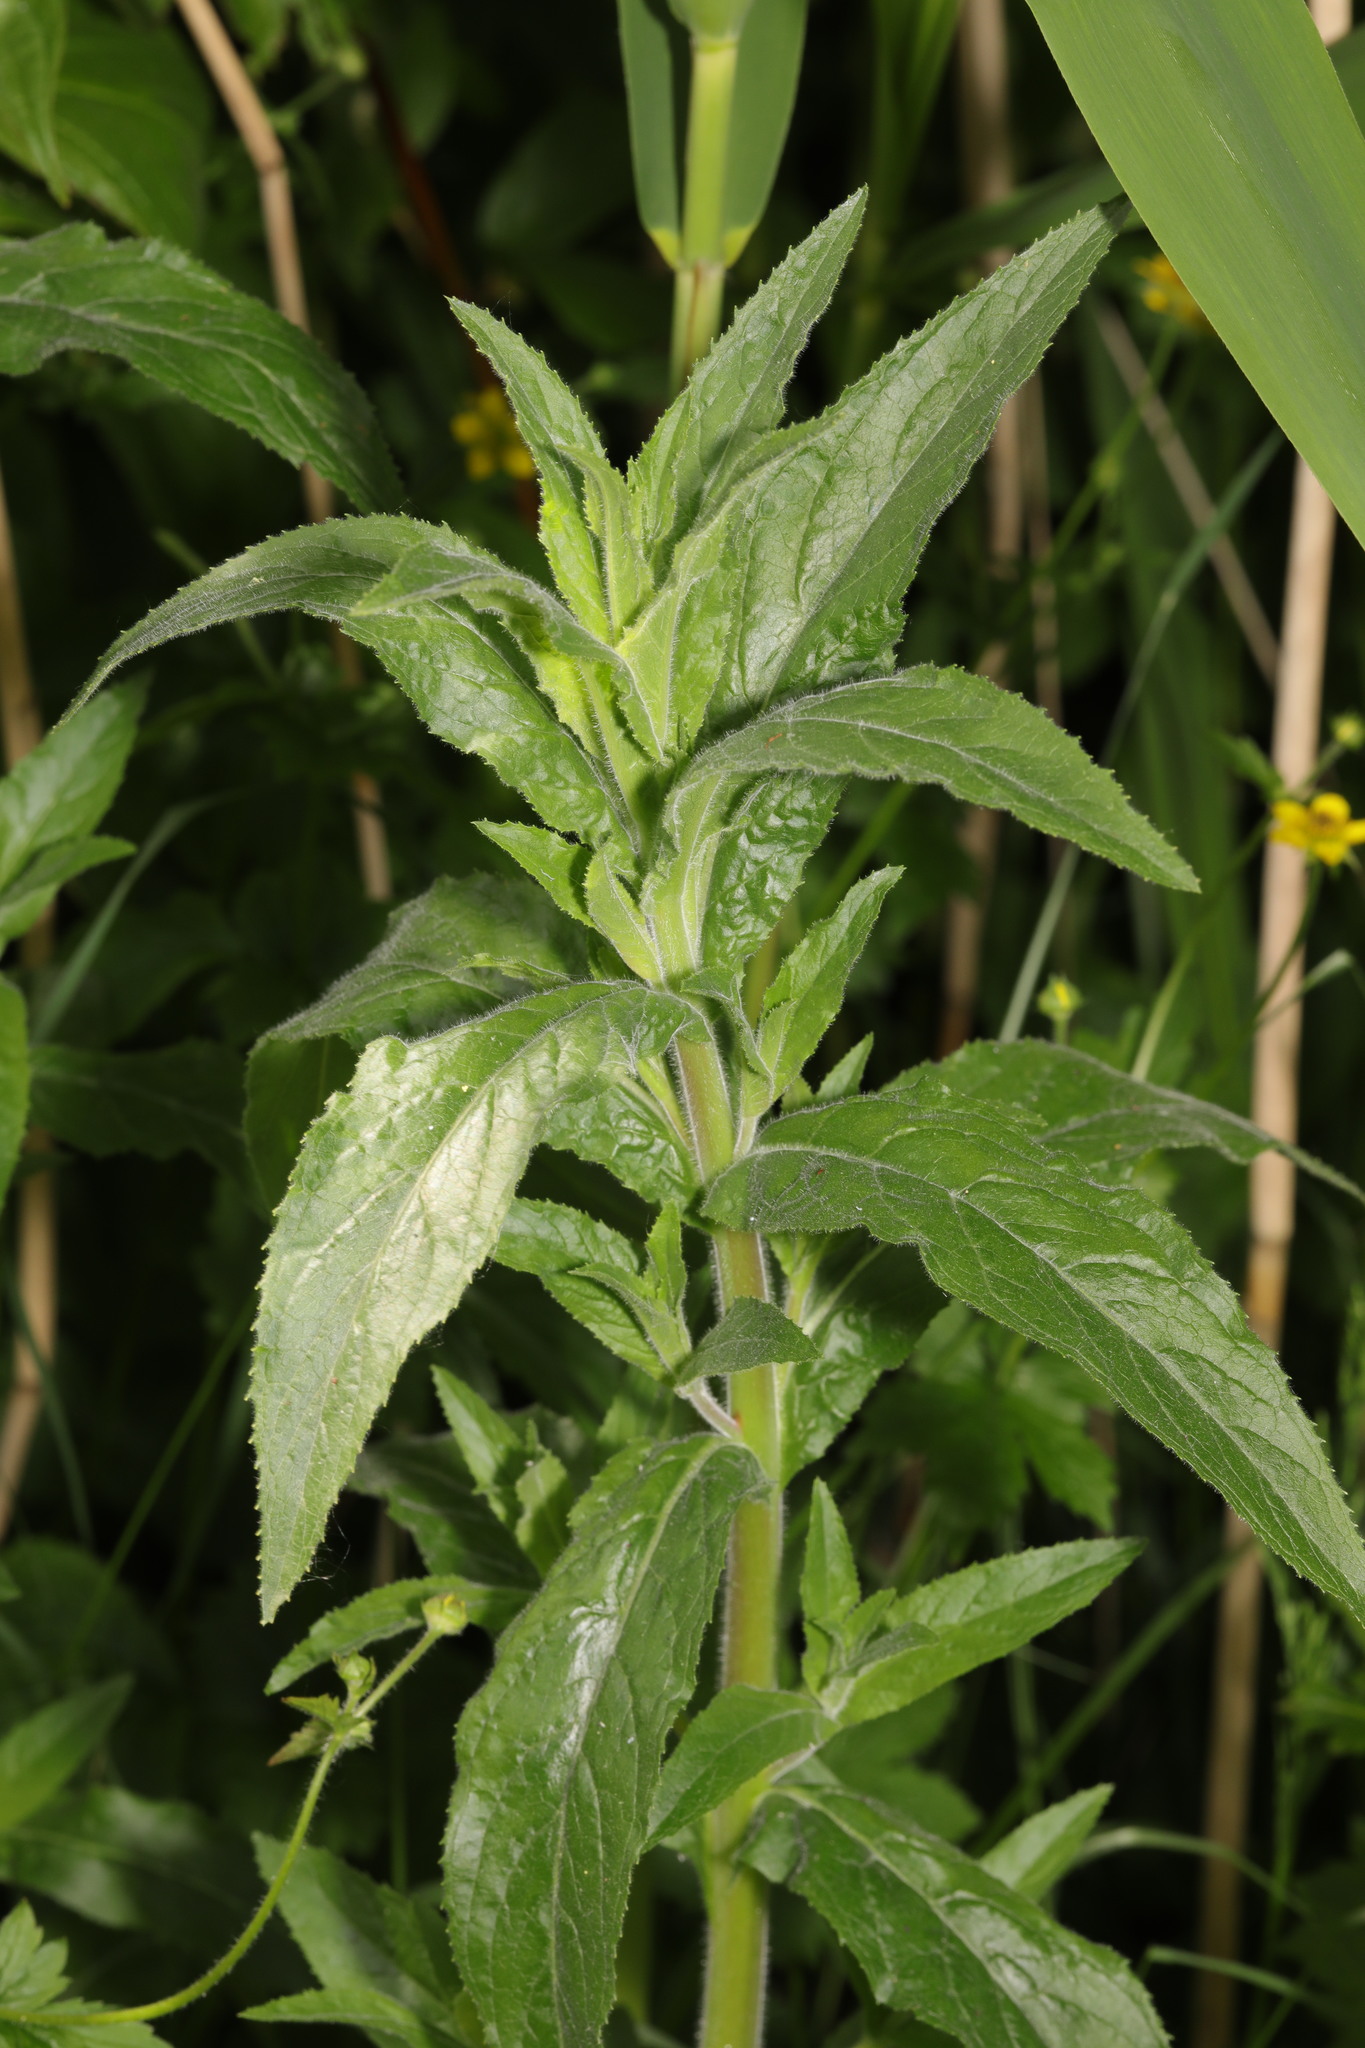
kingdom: Plantae
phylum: Tracheophyta
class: Magnoliopsida
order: Myrtales
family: Onagraceae
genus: Epilobium
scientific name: Epilobium hirsutum
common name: Great willowherb
